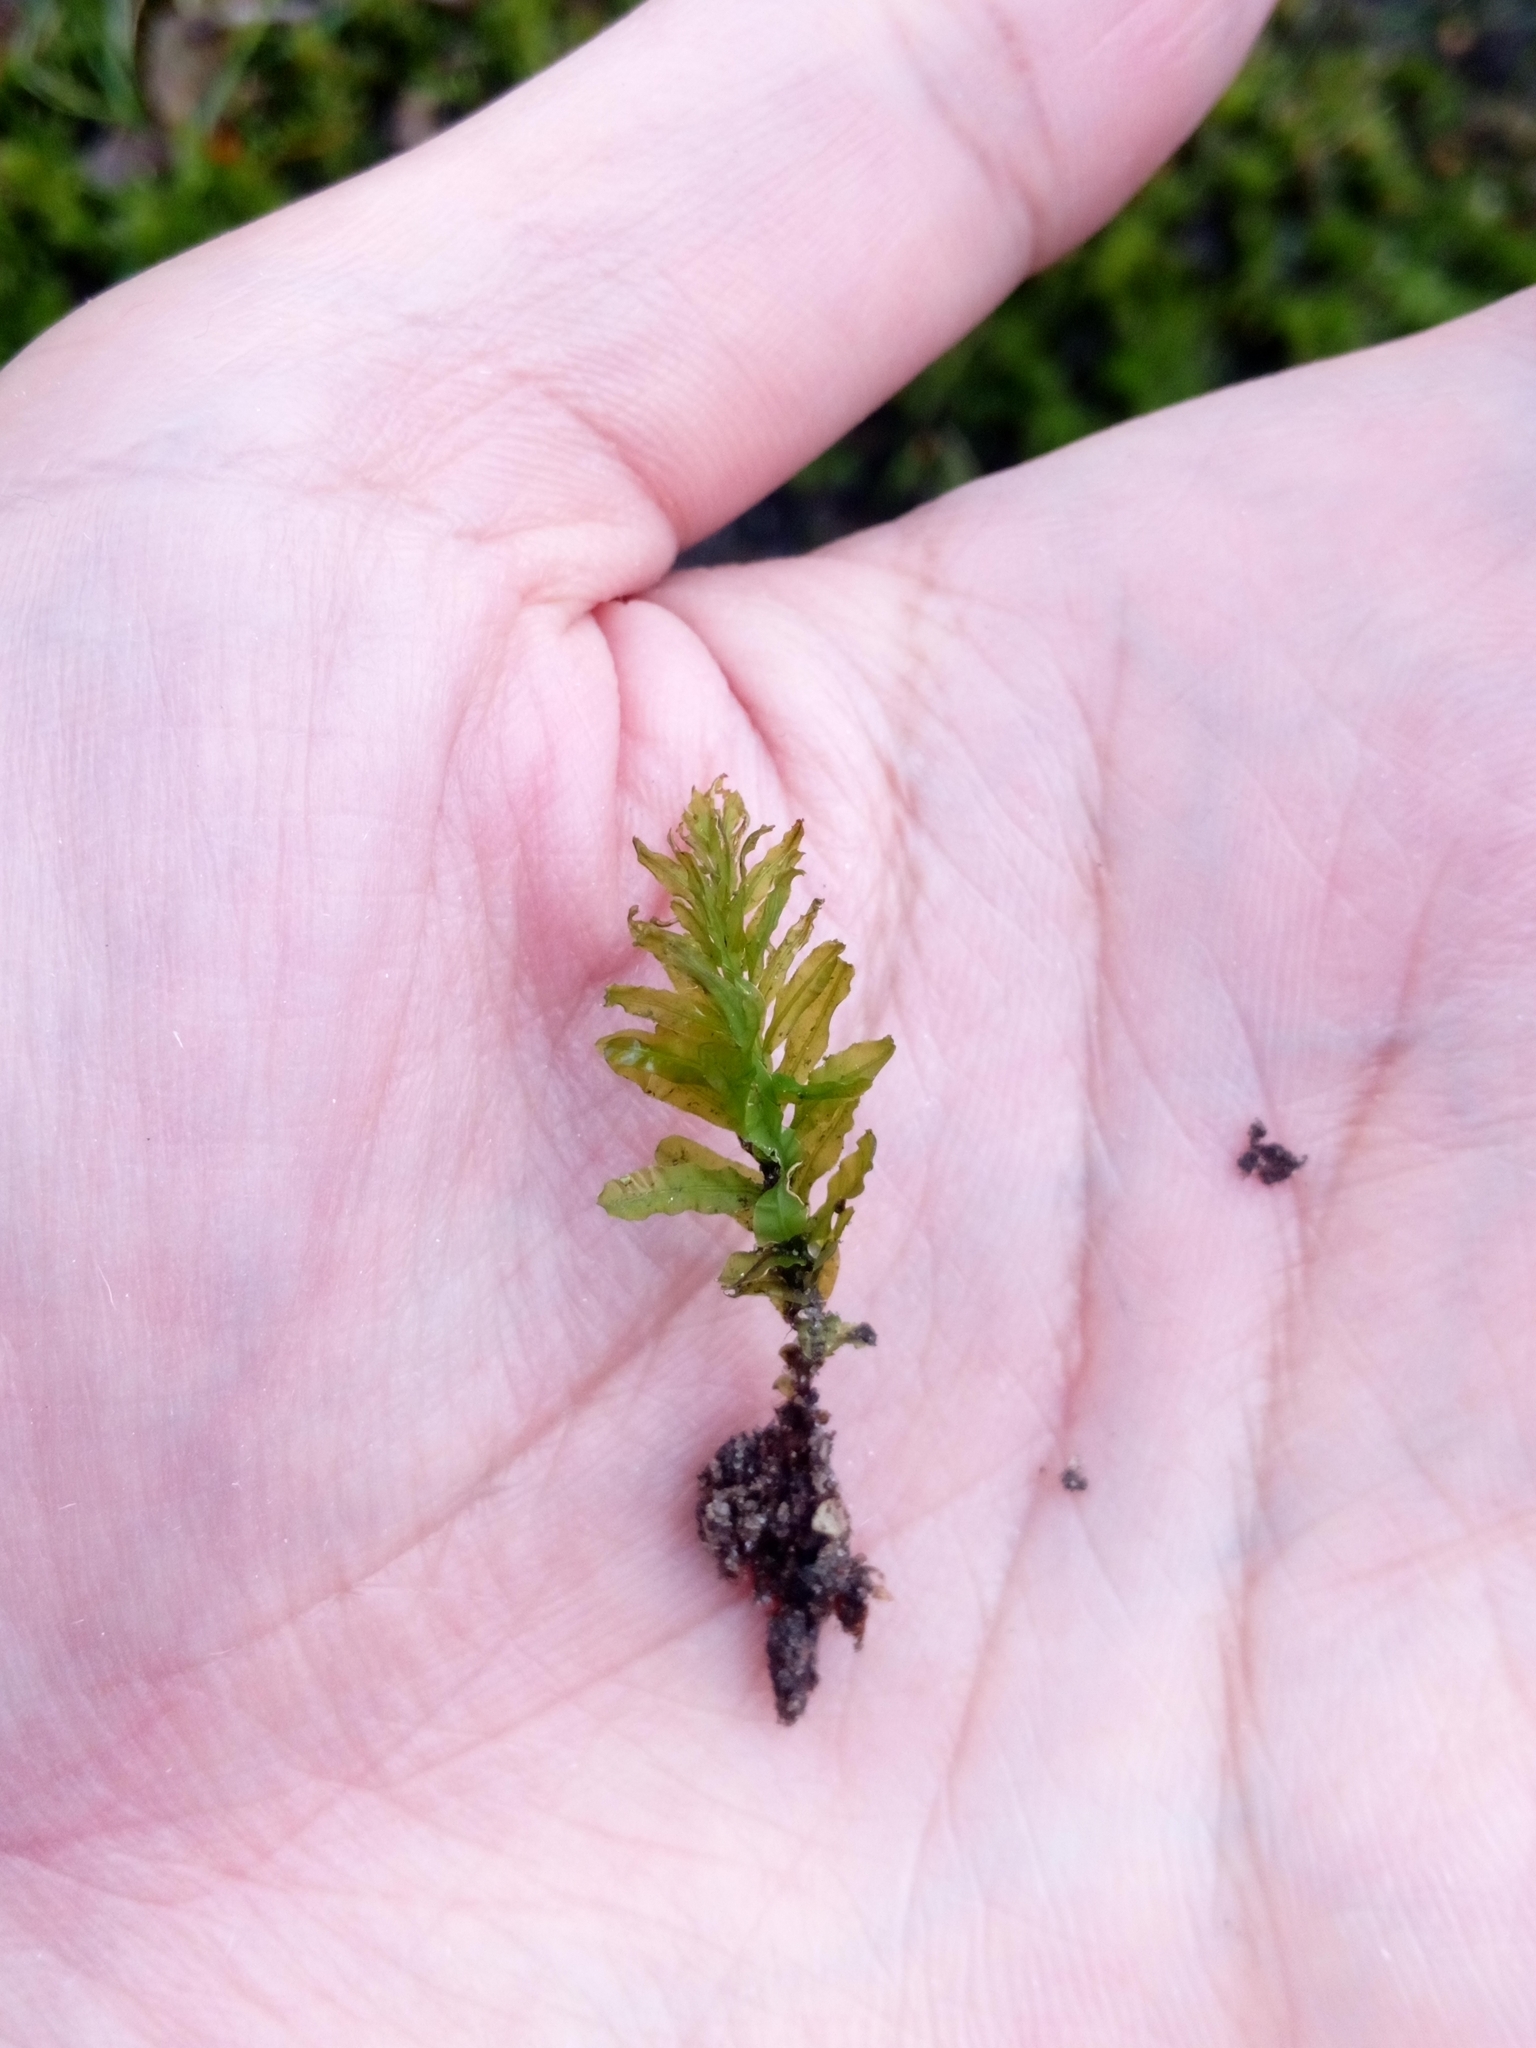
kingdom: Plantae
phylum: Bryophyta
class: Bryopsida
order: Bryales
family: Mniaceae
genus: Plagiomnium
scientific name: Plagiomnium undulatum
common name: Hart's-tongue thyme-moss
